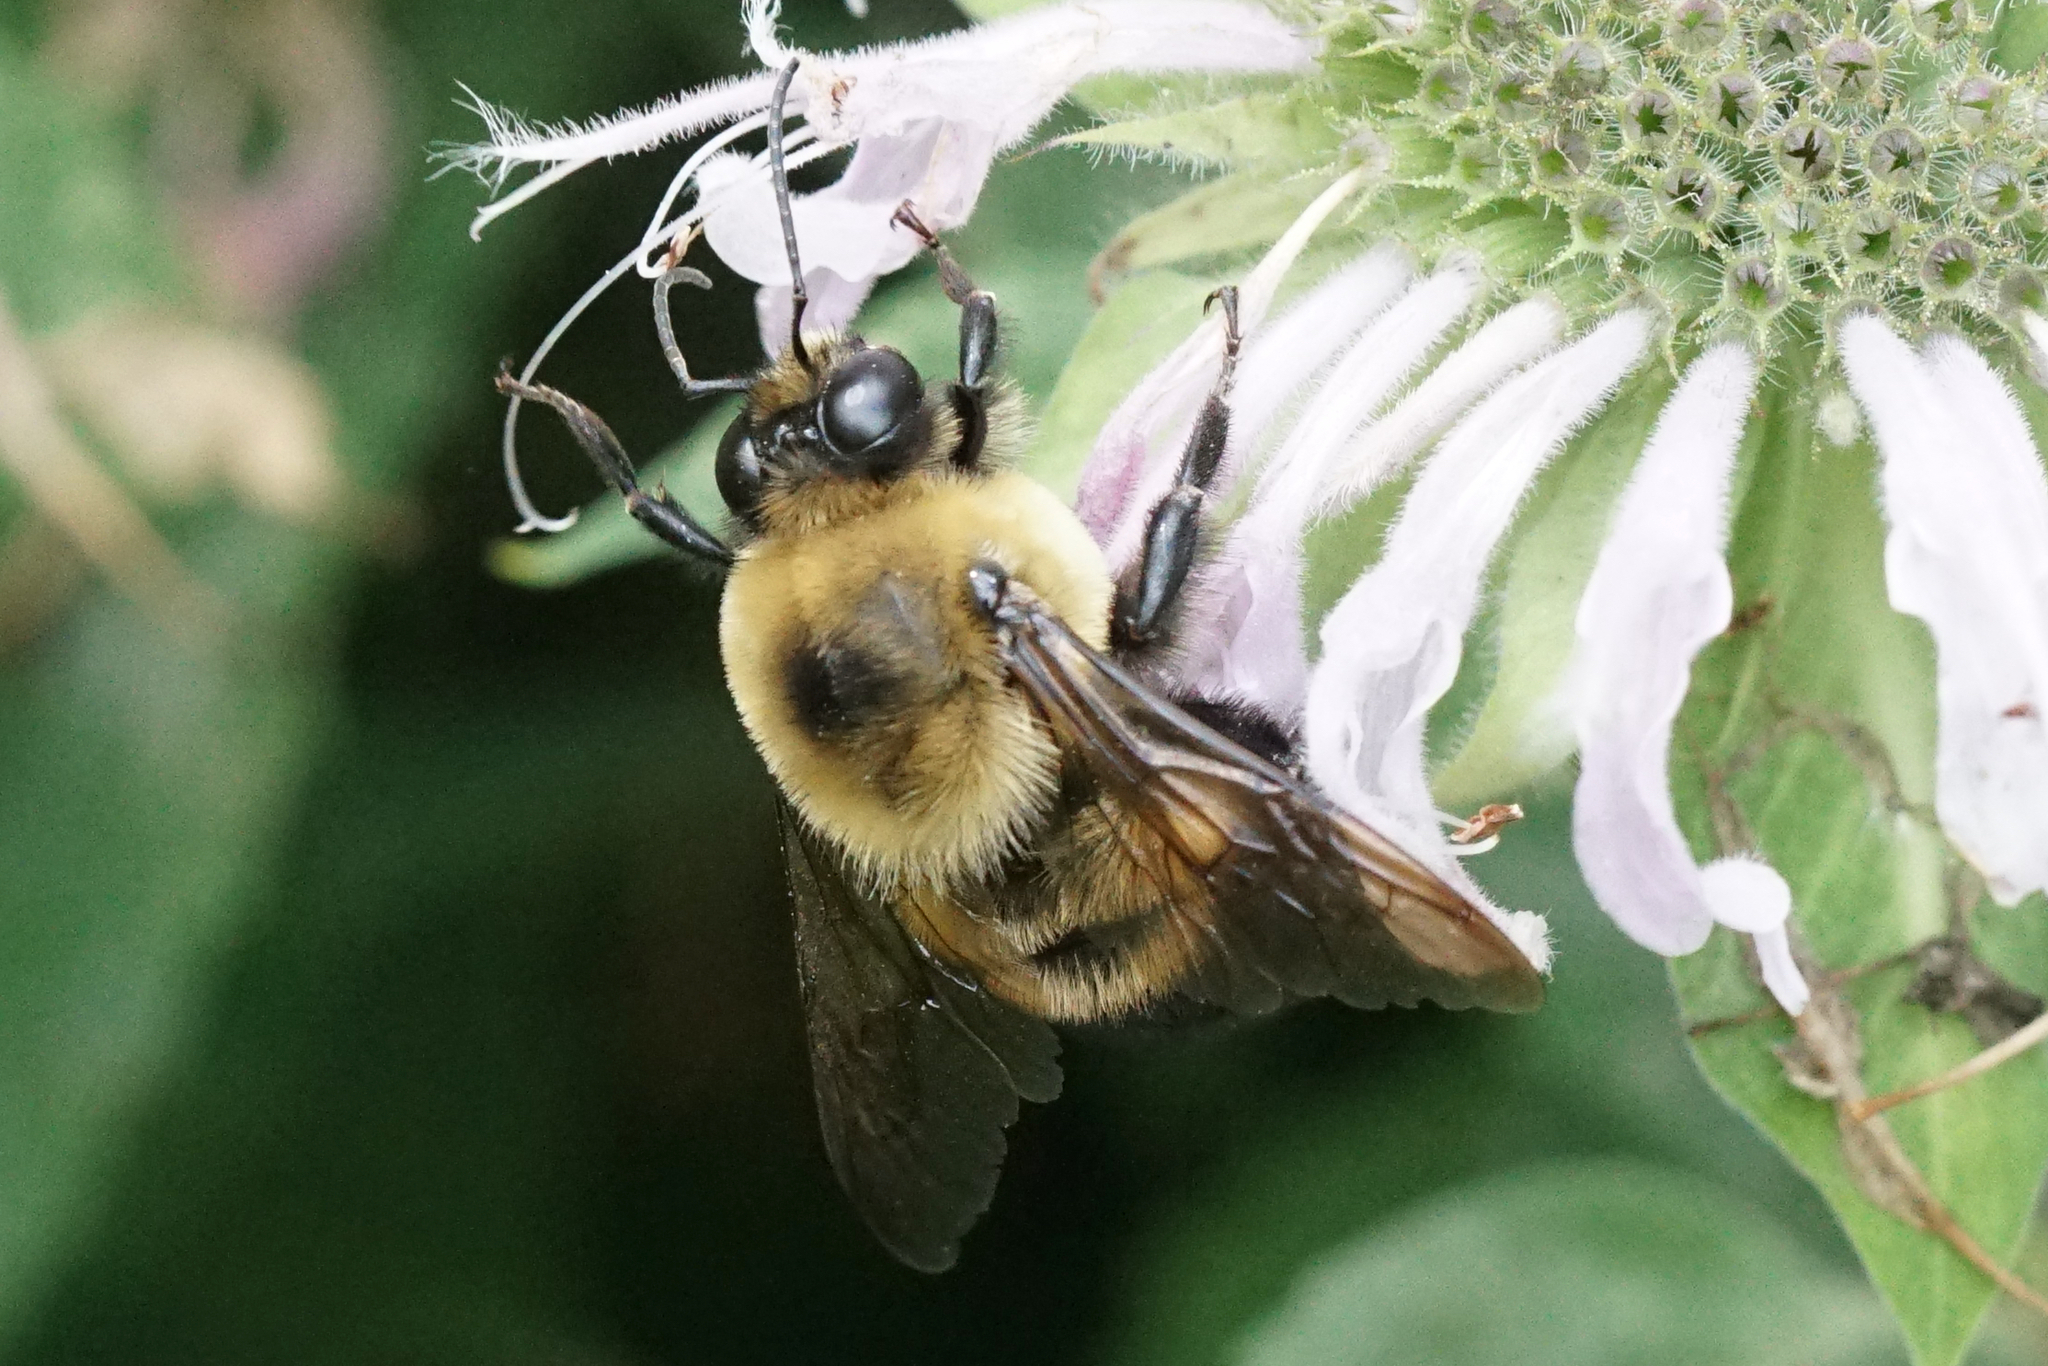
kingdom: Animalia
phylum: Arthropoda
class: Insecta
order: Hymenoptera
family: Apidae
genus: Bombus
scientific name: Bombus griseocollis
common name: Brown-belted bumble bee
